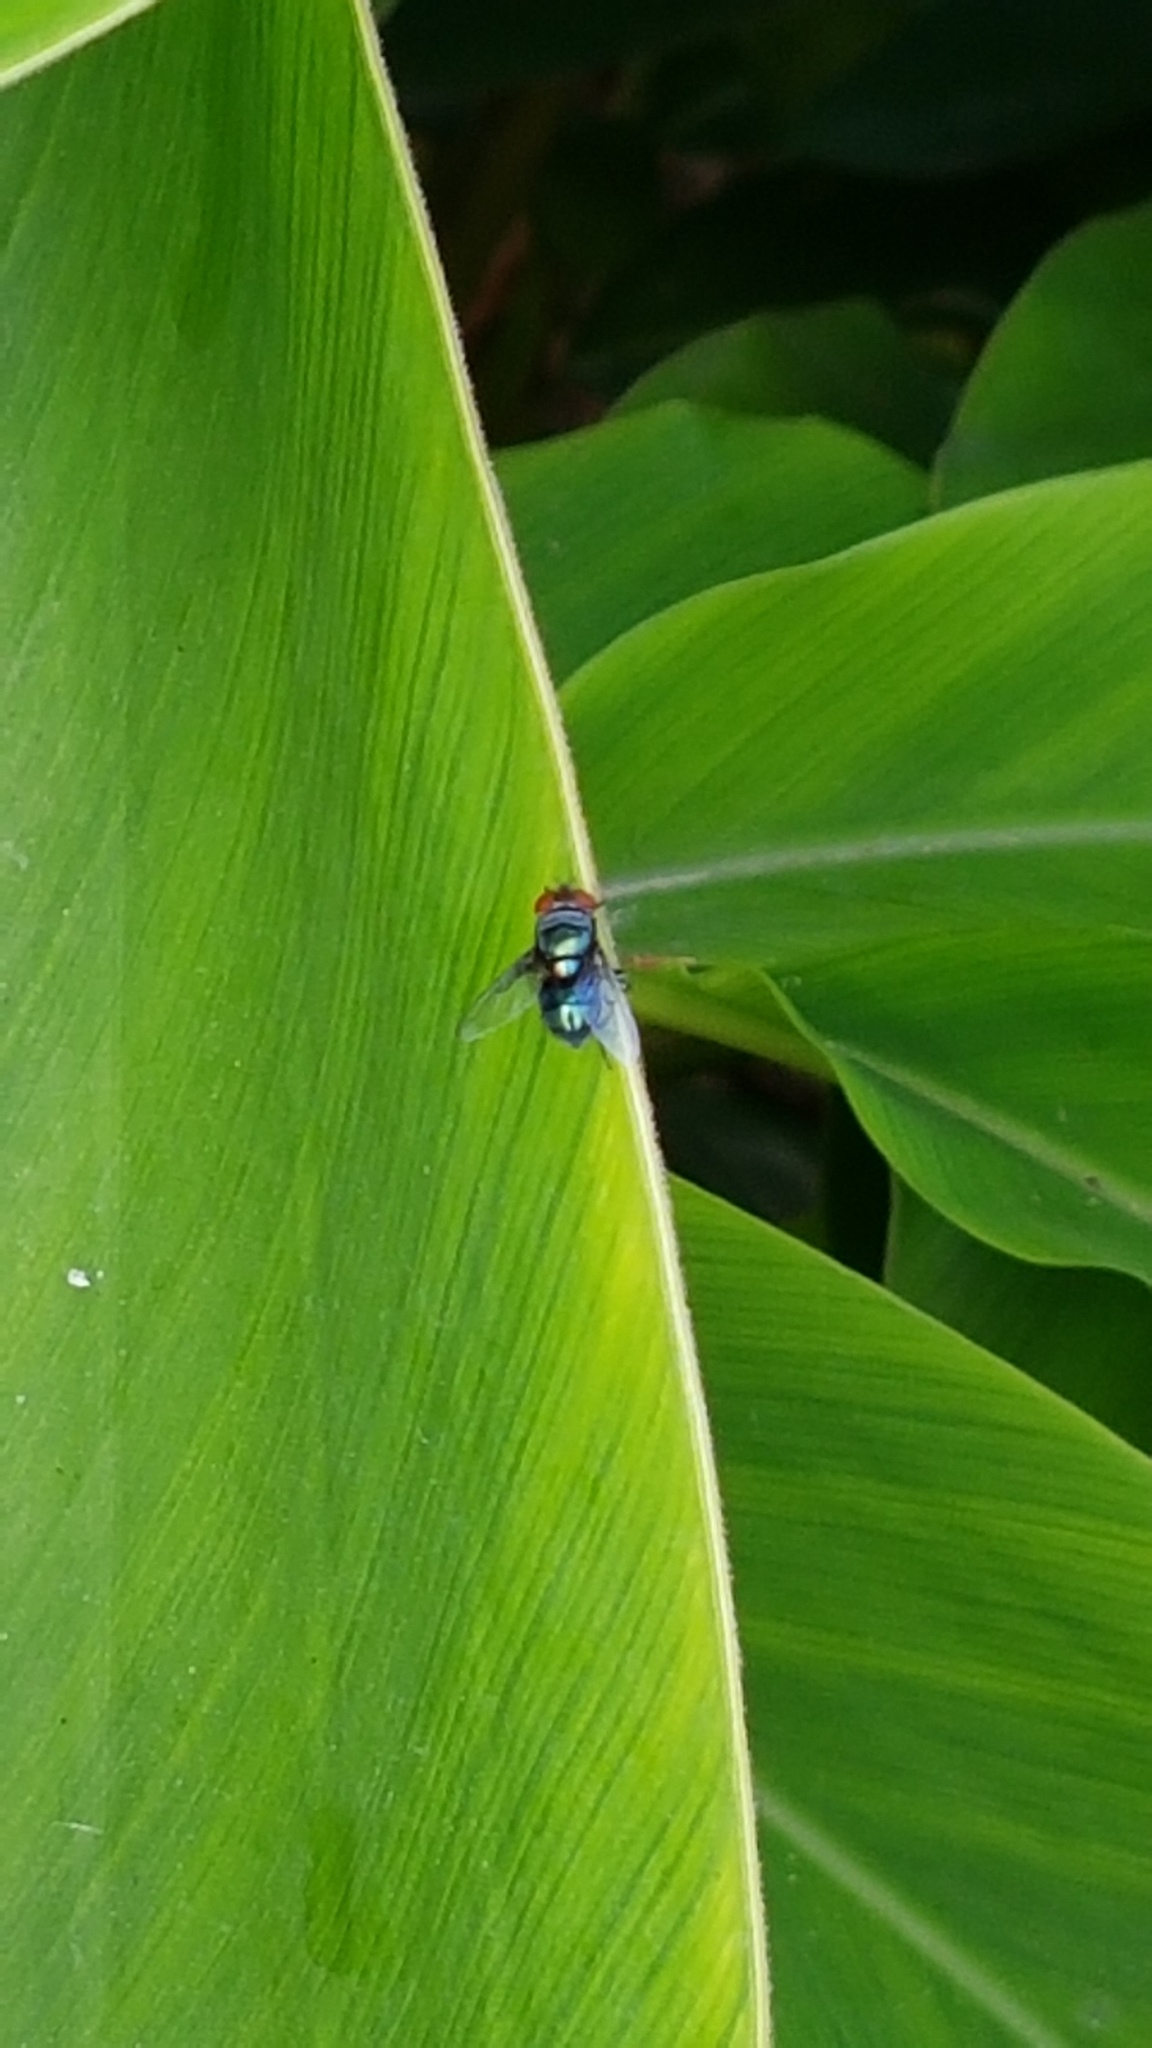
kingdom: Animalia
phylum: Arthropoda
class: Insecta
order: Diptera
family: Calliphoridae
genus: Chrysomya
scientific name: Chrysomya megacephala
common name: Blow fly
